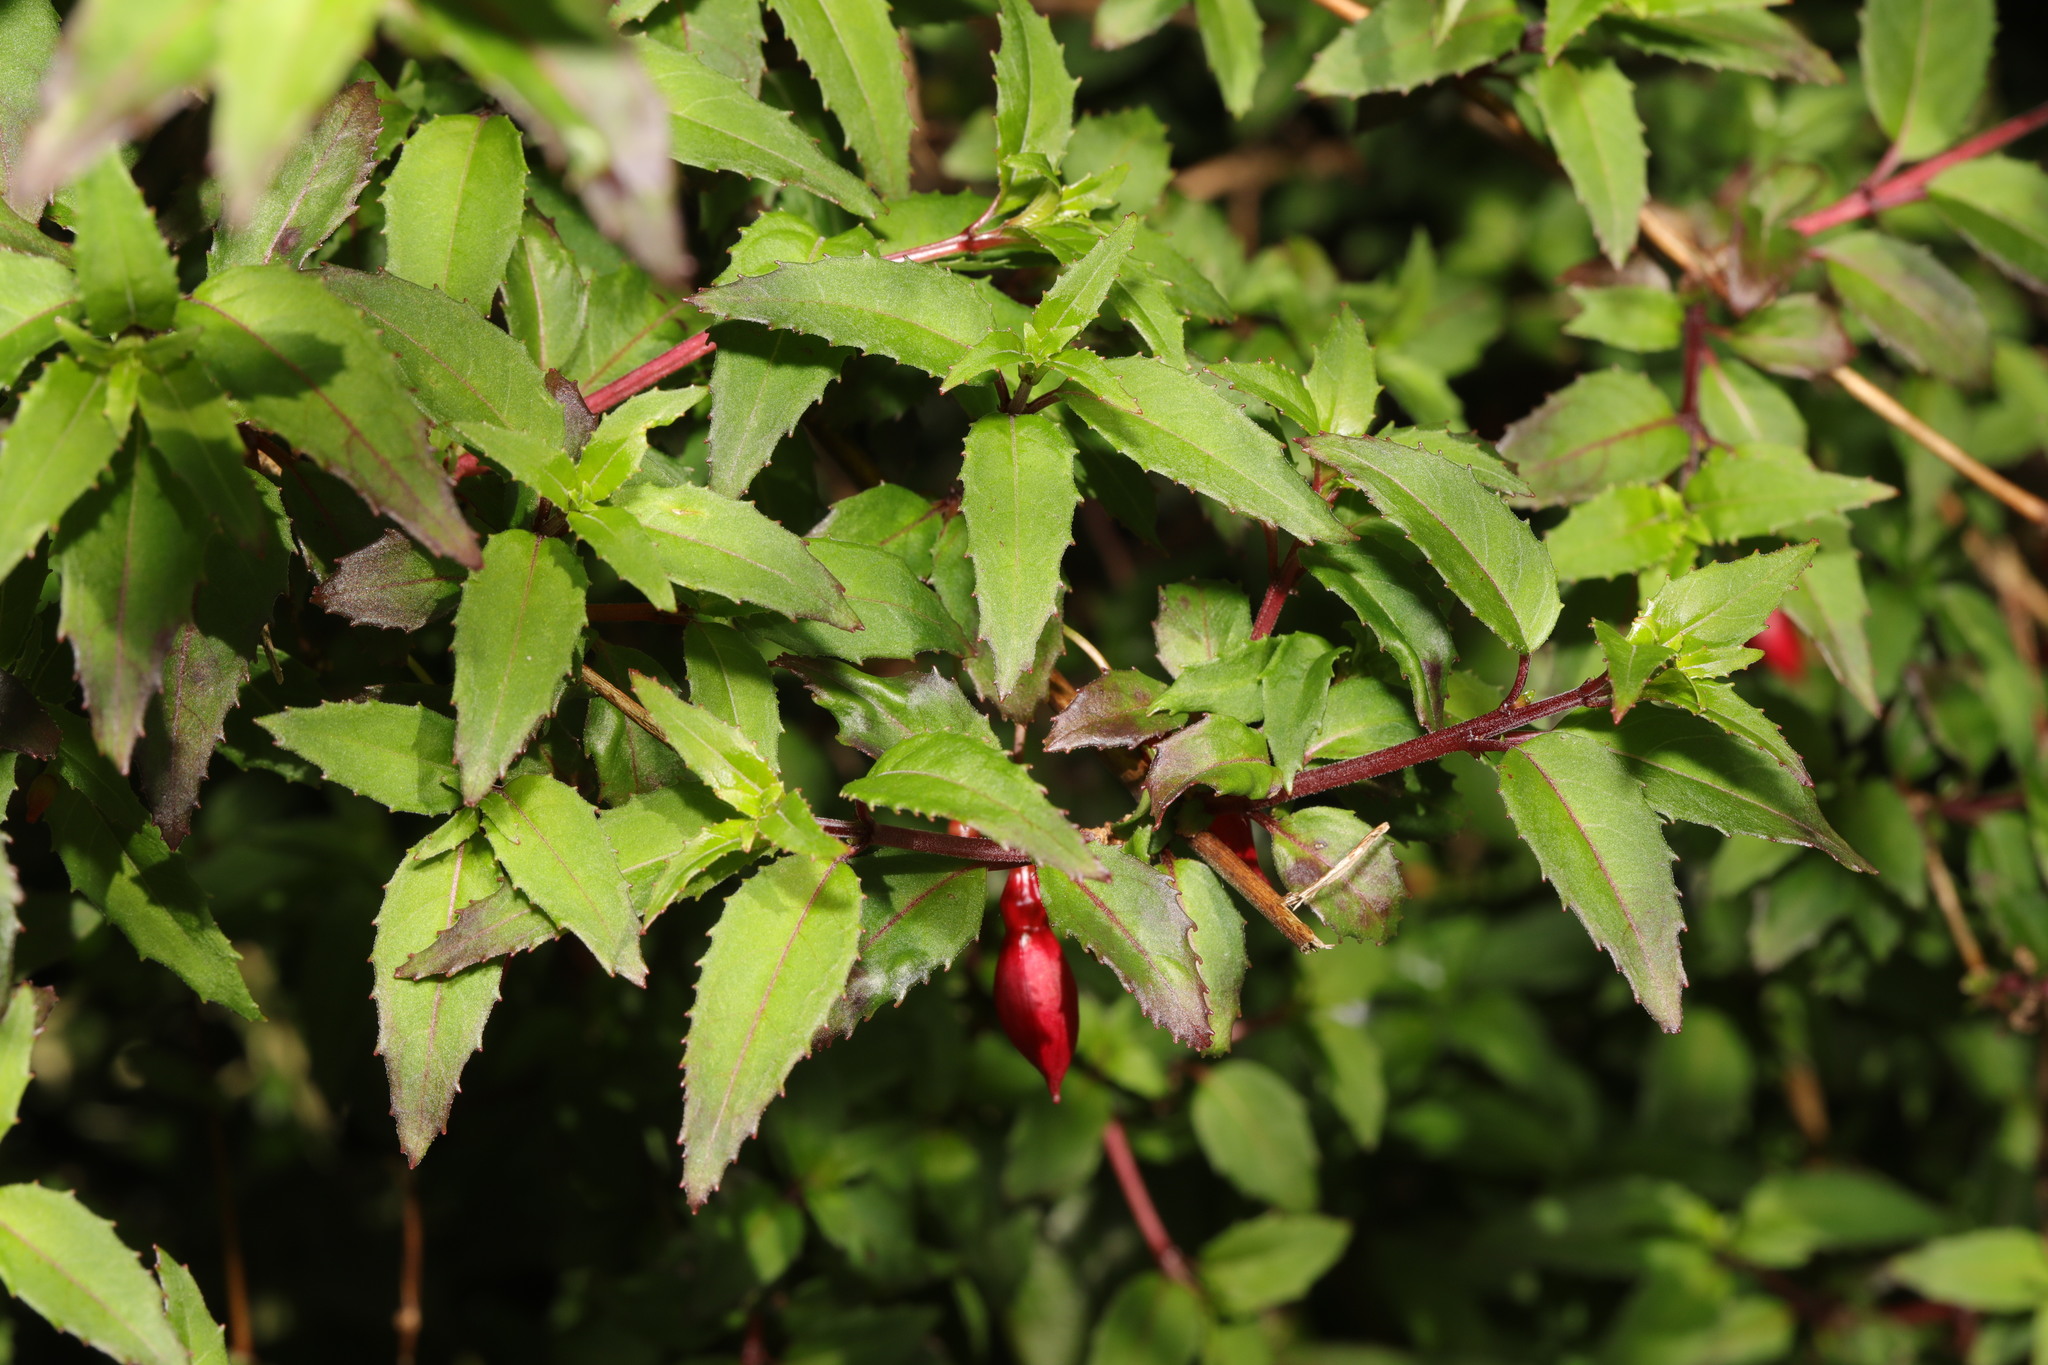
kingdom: Plantae
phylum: Tracheophyta
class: Magnoliopsida
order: Myrtales
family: Onagraceae
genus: Fuchsia
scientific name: Fuchsia magellanica
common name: Hardy fuchsia
